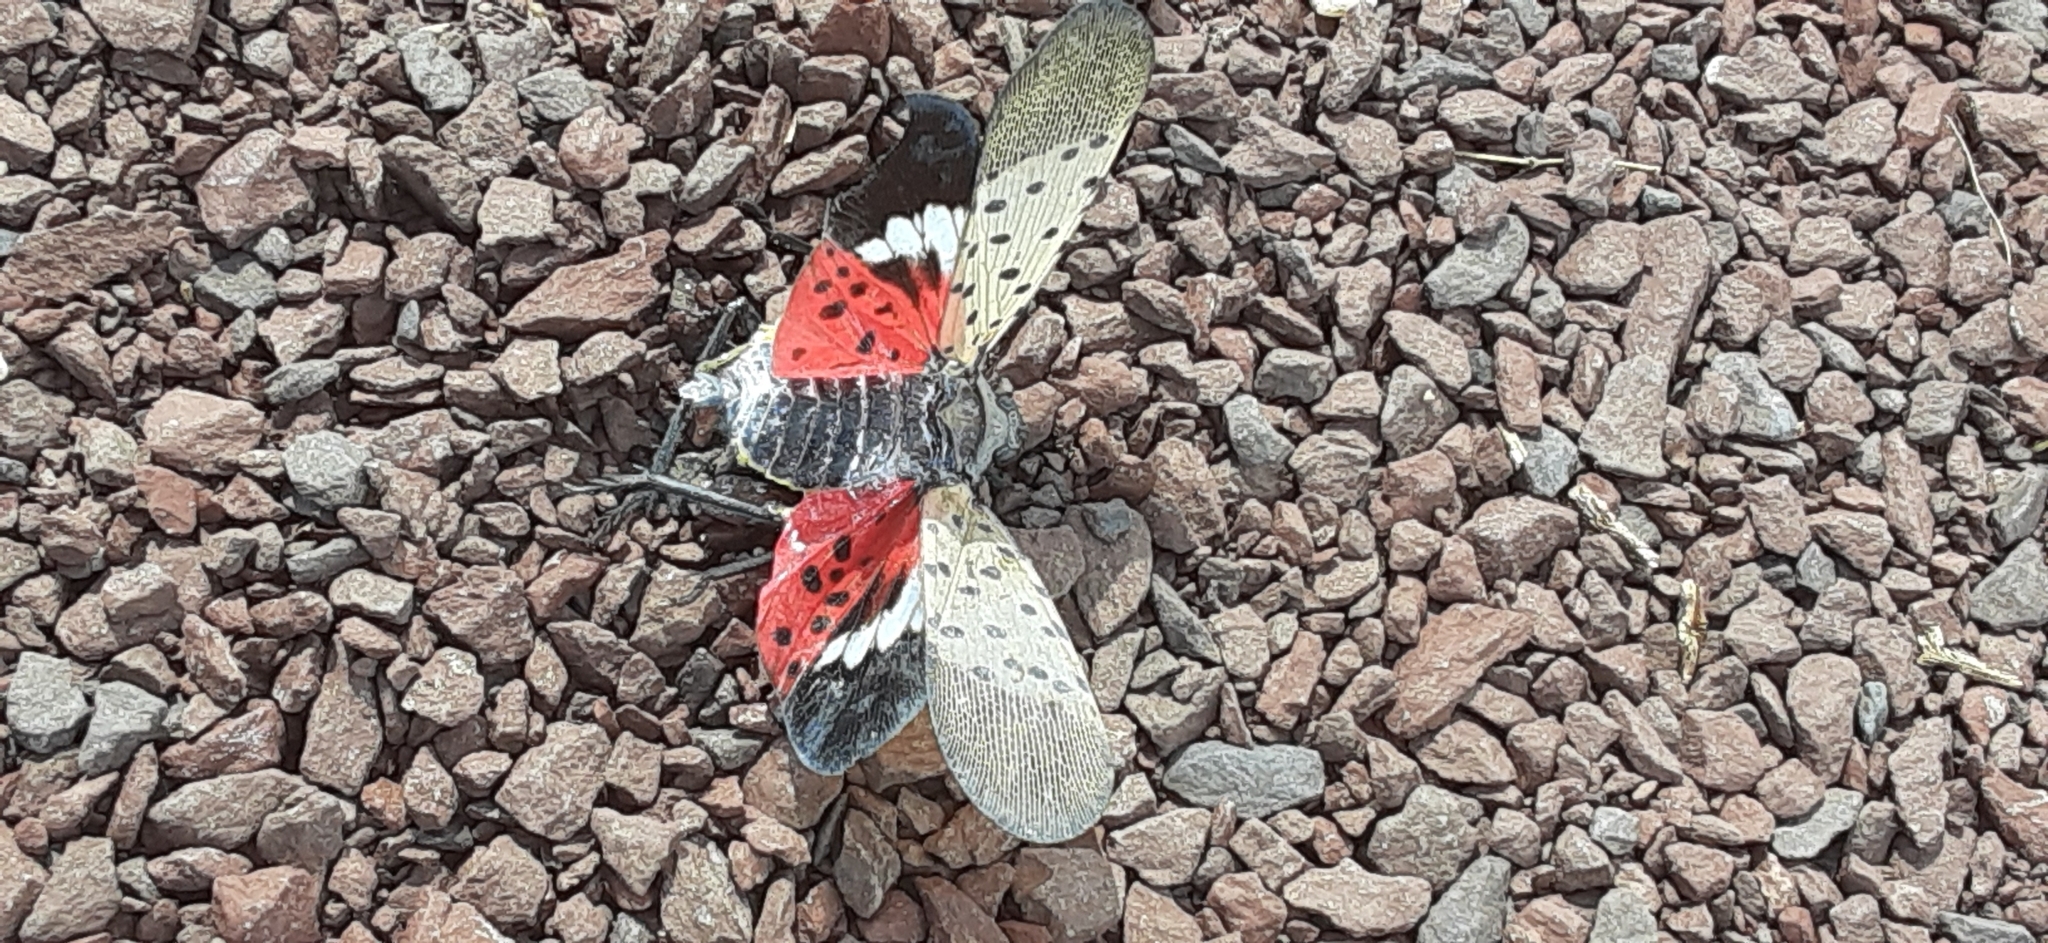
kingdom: Animalia
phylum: Arthropoda
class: Insecta
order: Hemiptera
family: Fulgoridae
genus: Lycorma
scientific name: Lycorma delicatula
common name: Spotted lanternfly
